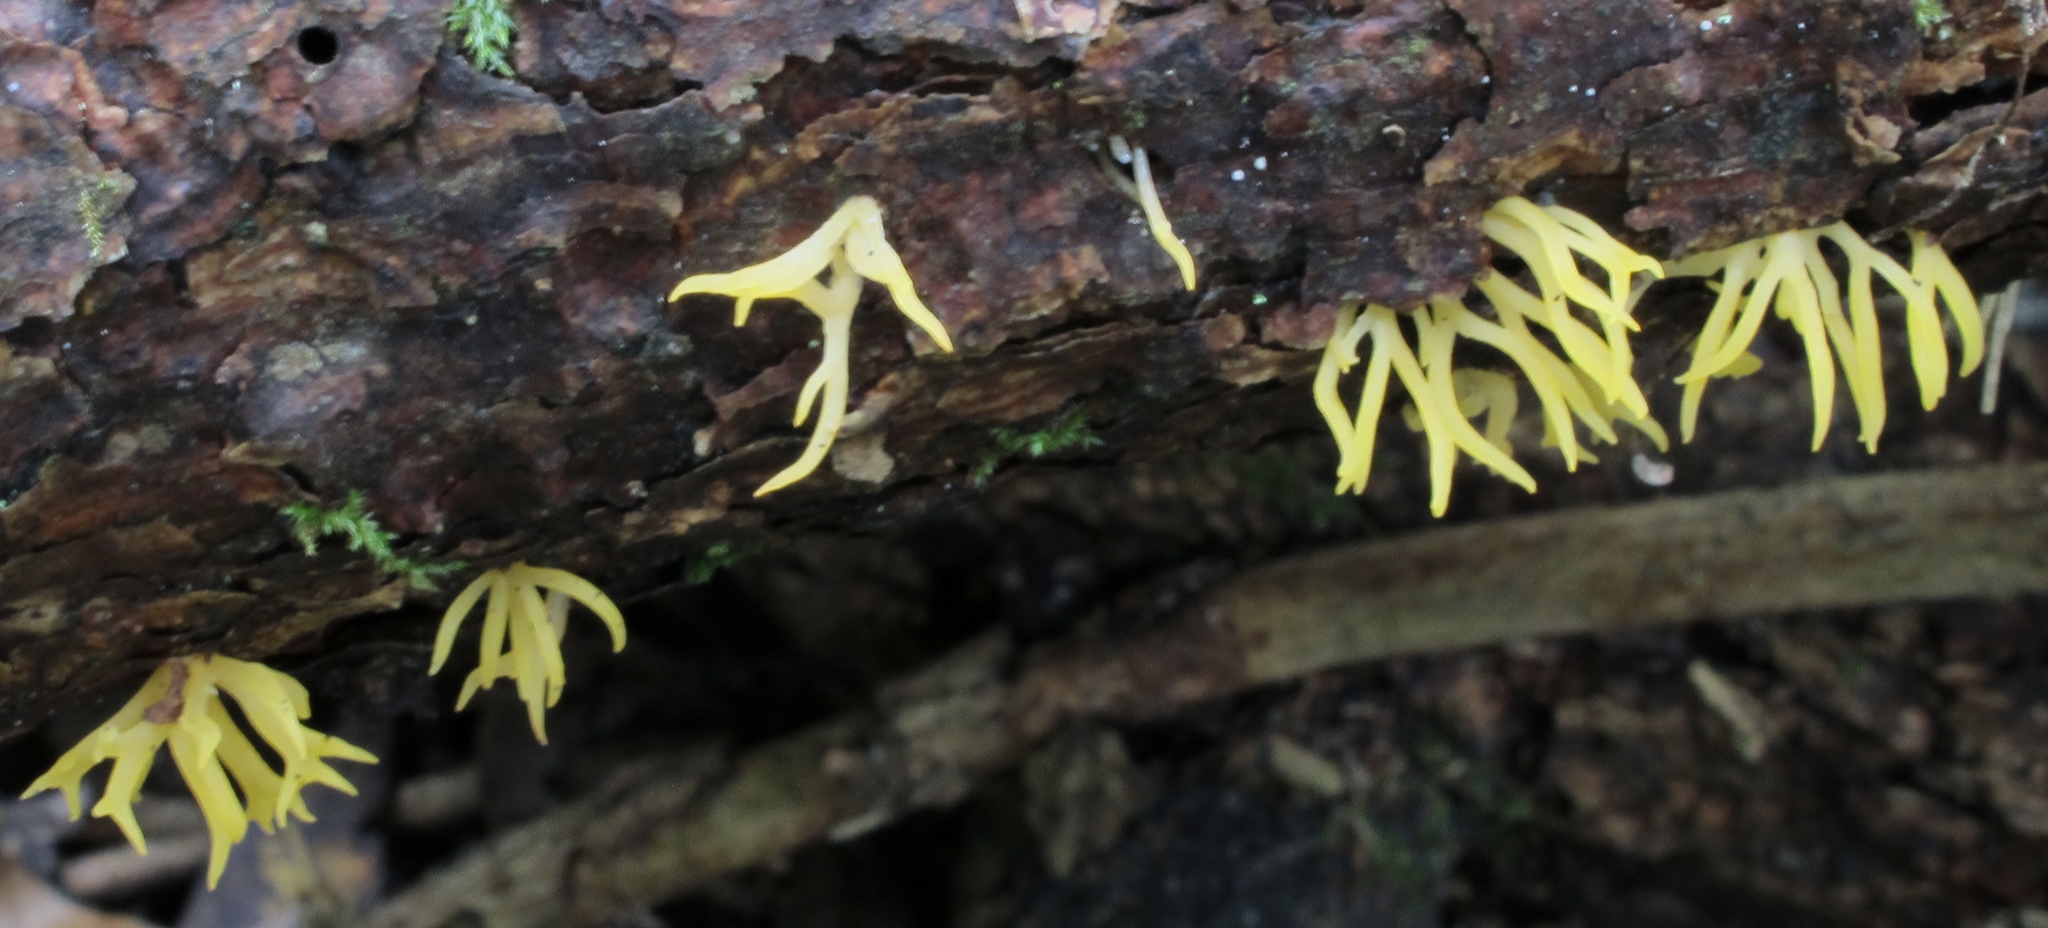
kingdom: Fungi
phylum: Basidiomycota
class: Dacrymycetes
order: Dacrymycetales
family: Dacrymycetaceae
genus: Calocera
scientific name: Calocera cornea
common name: Small stagshorn
